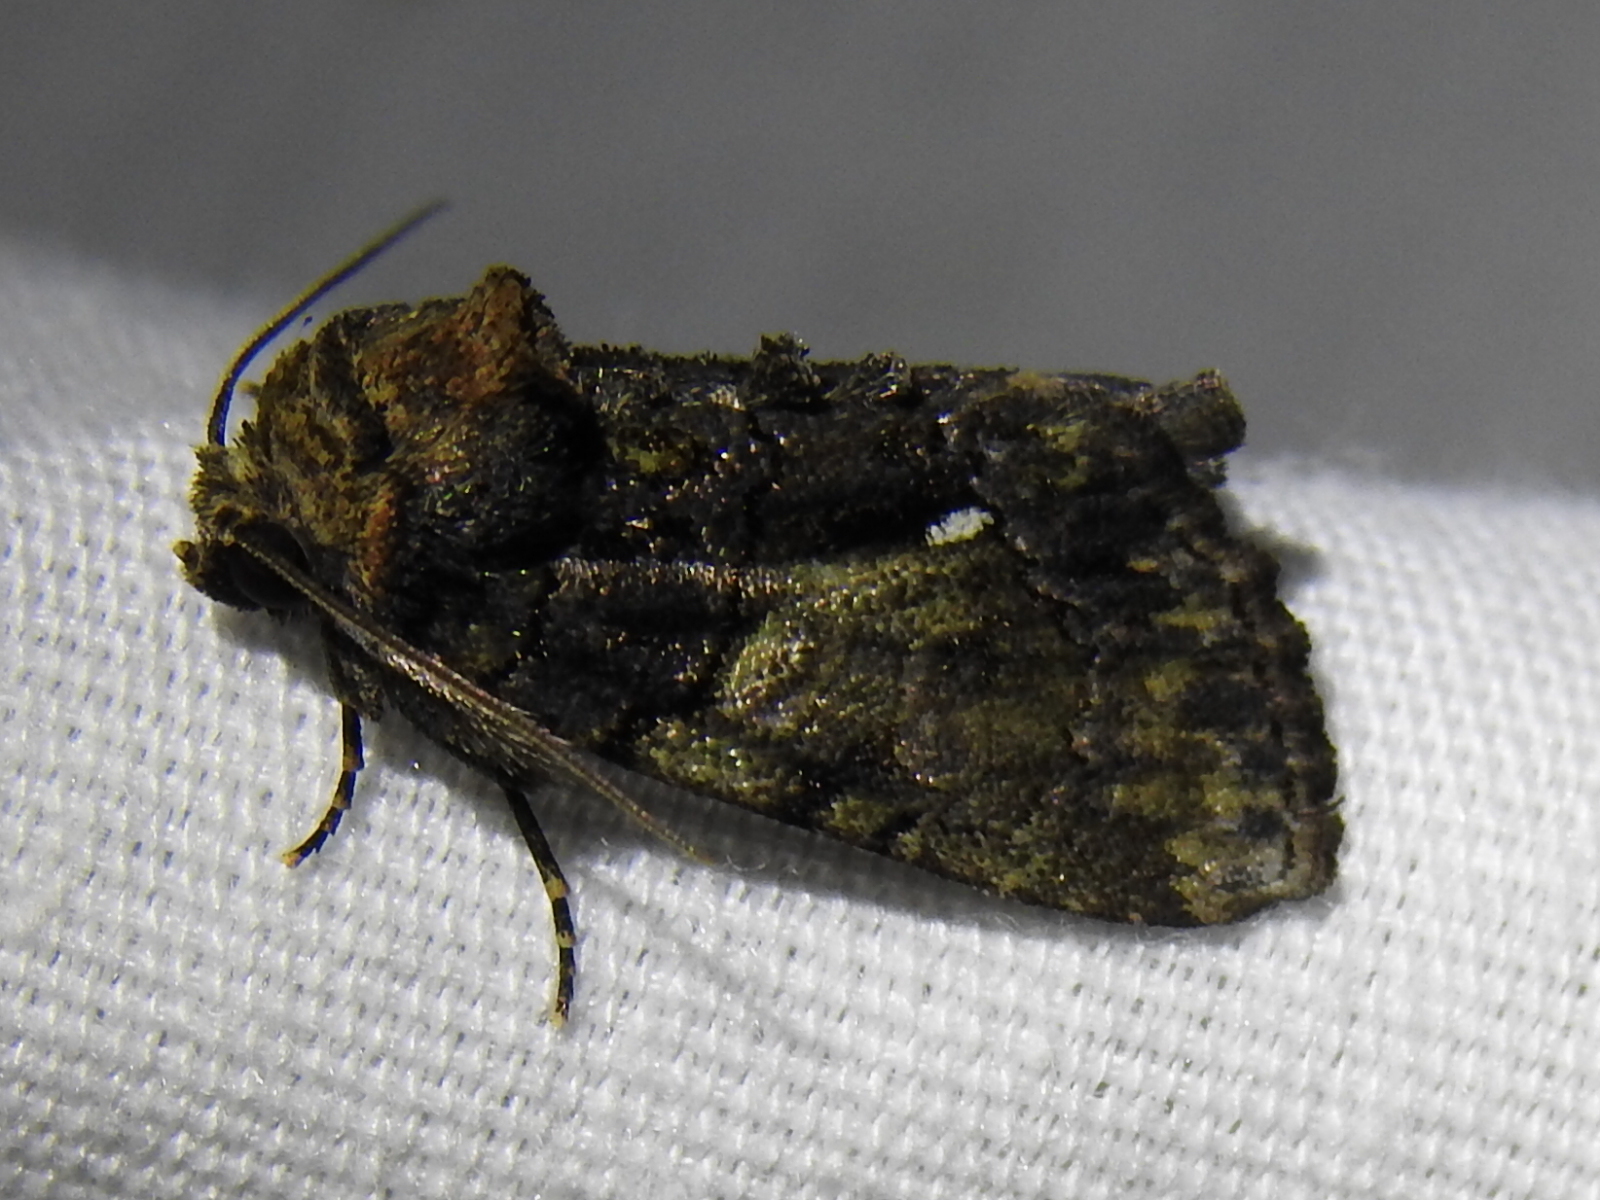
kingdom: Animalia
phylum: Arthropoda
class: Insecta
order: Lepidoptera
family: Noctuidae
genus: Chytonix
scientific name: Chytonix palliatricula
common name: Cloaked marvel
